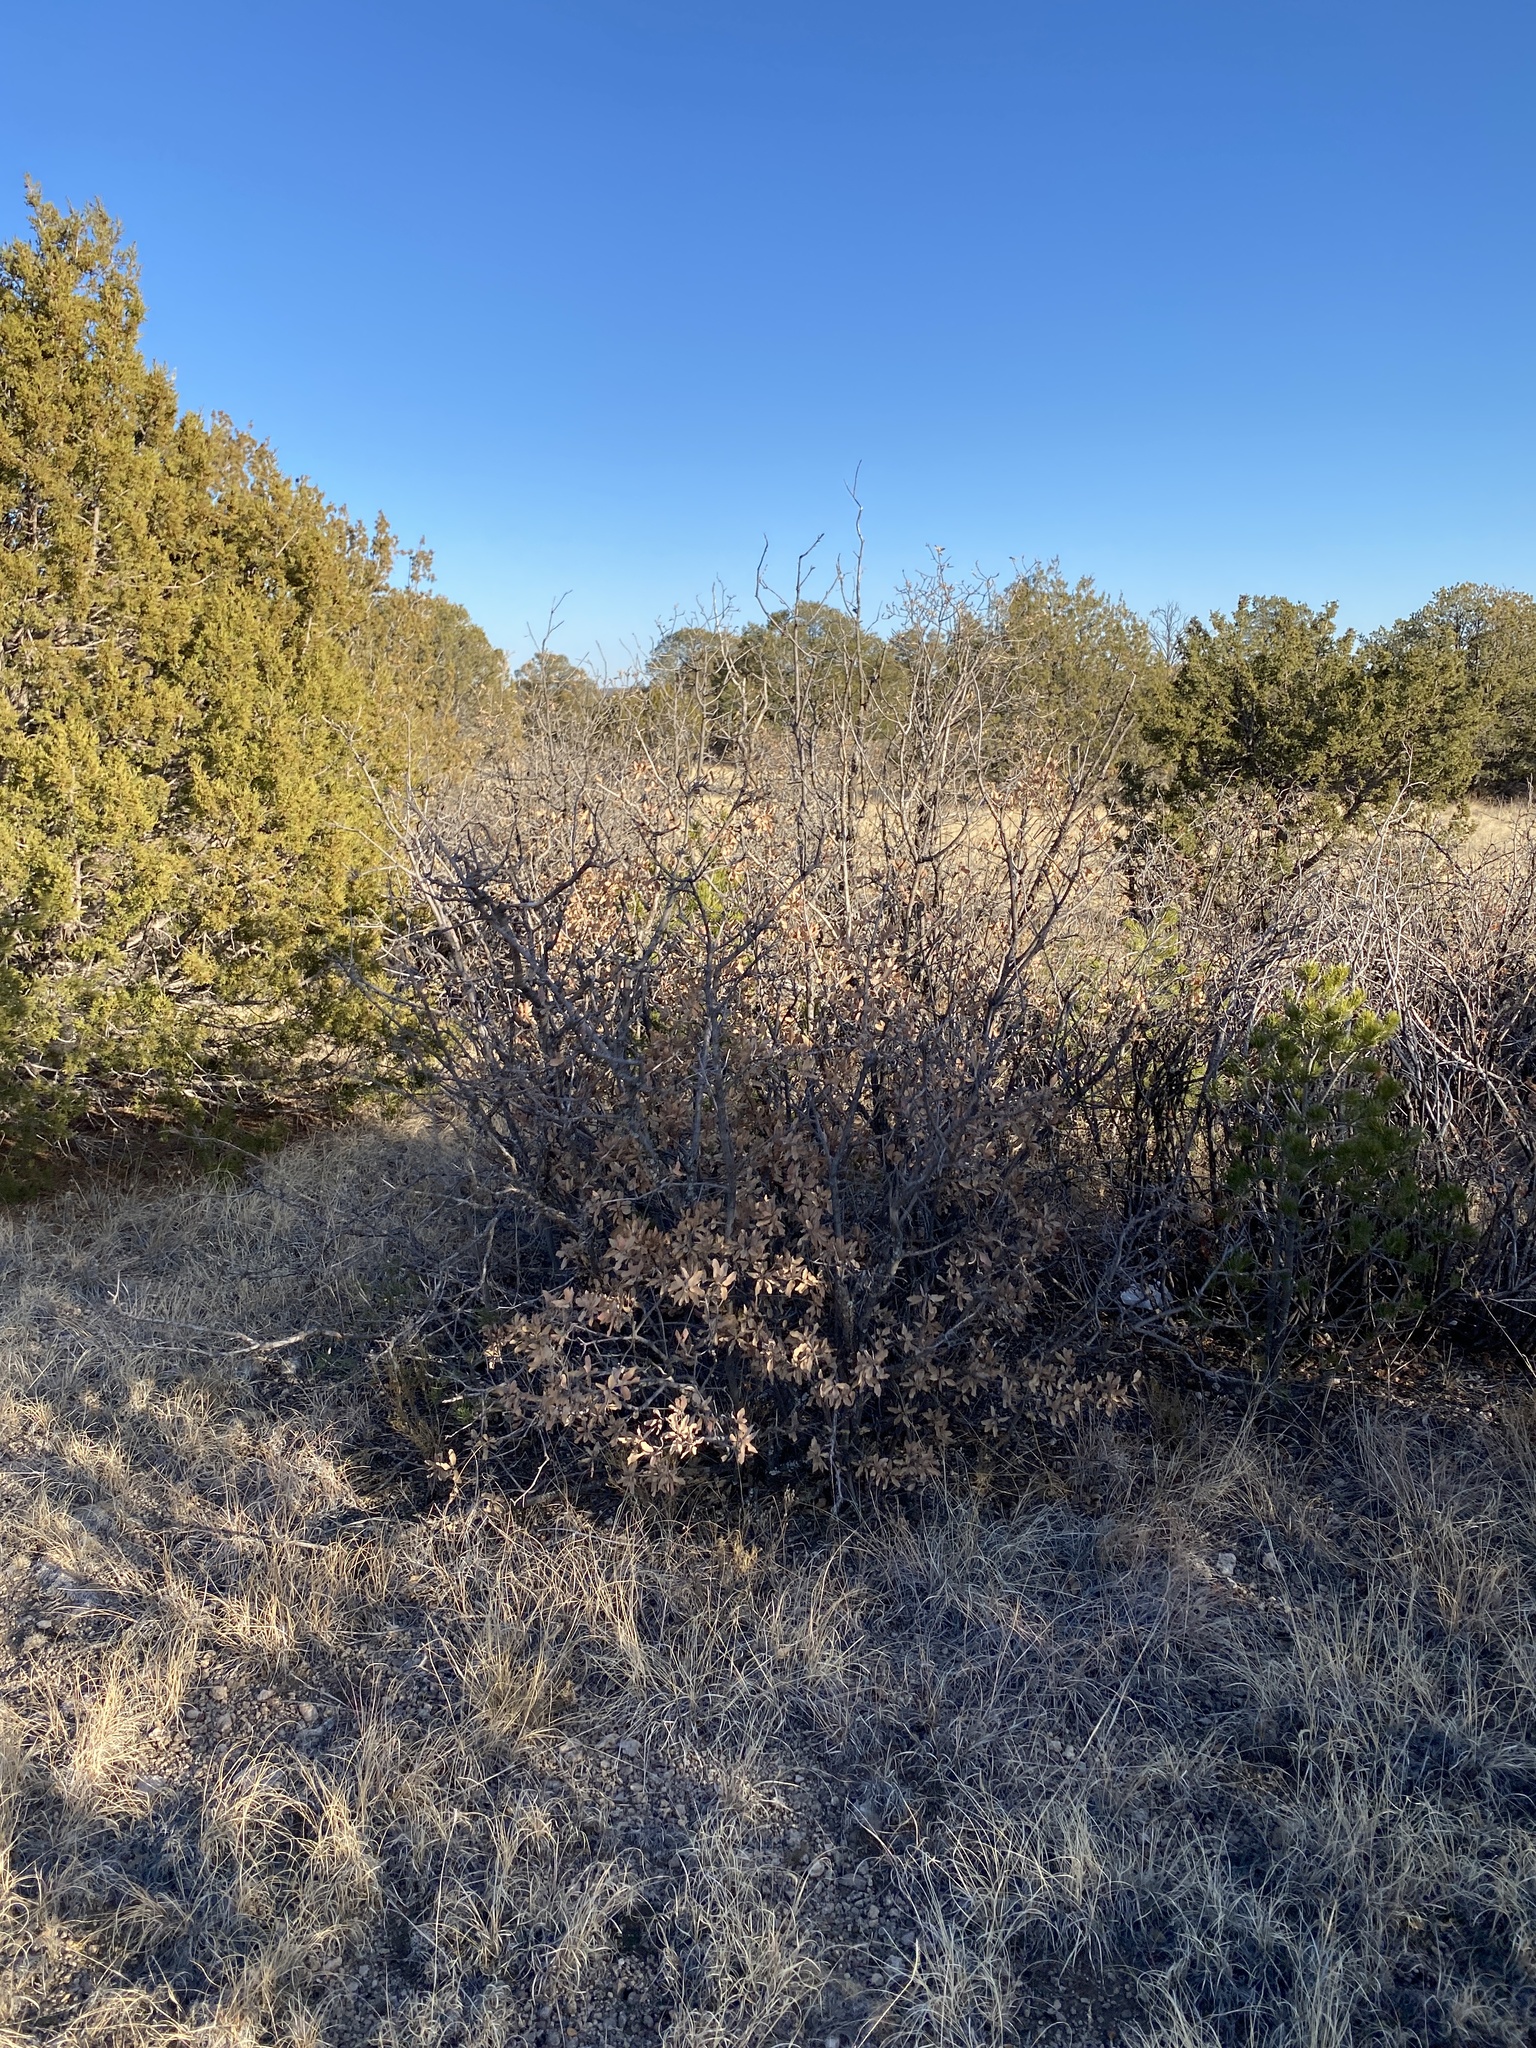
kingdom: Plantae
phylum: Tracheophyta
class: Magnoliopsida
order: Fagales
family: Fagaceae
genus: Quercus
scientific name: Quercus undulata
